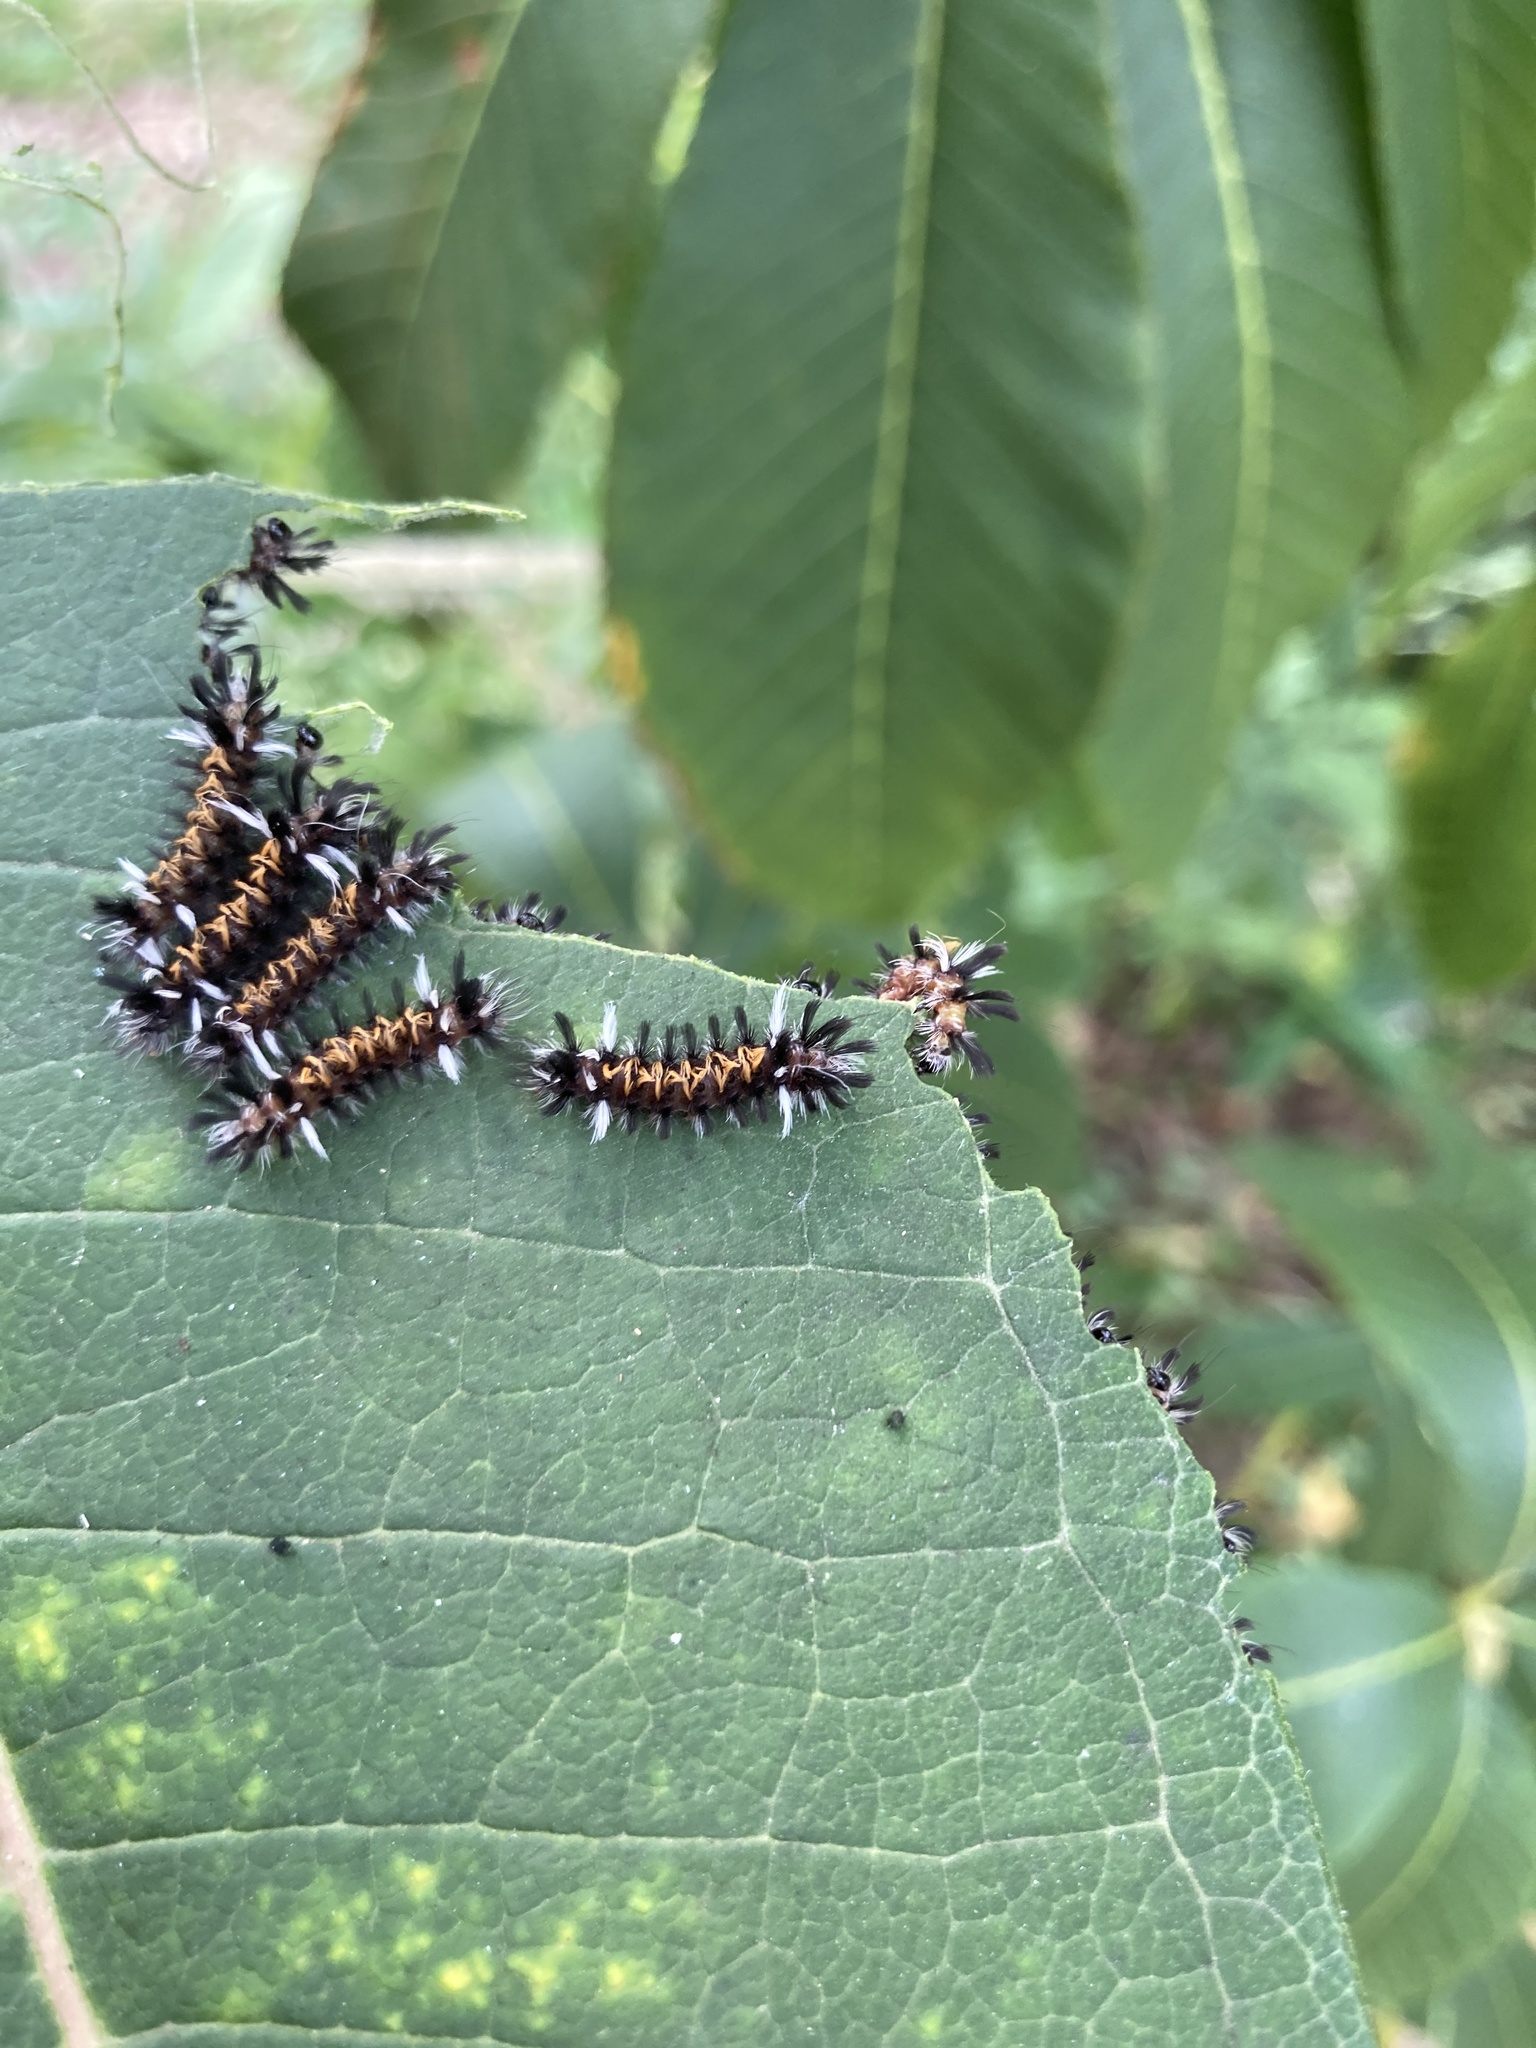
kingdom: Animalia
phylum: Arthropoda
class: Insecta
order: Lepidoptera
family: Erebidae
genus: Euchaetes
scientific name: Euchaetes egle
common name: Milkweed tussock moth
